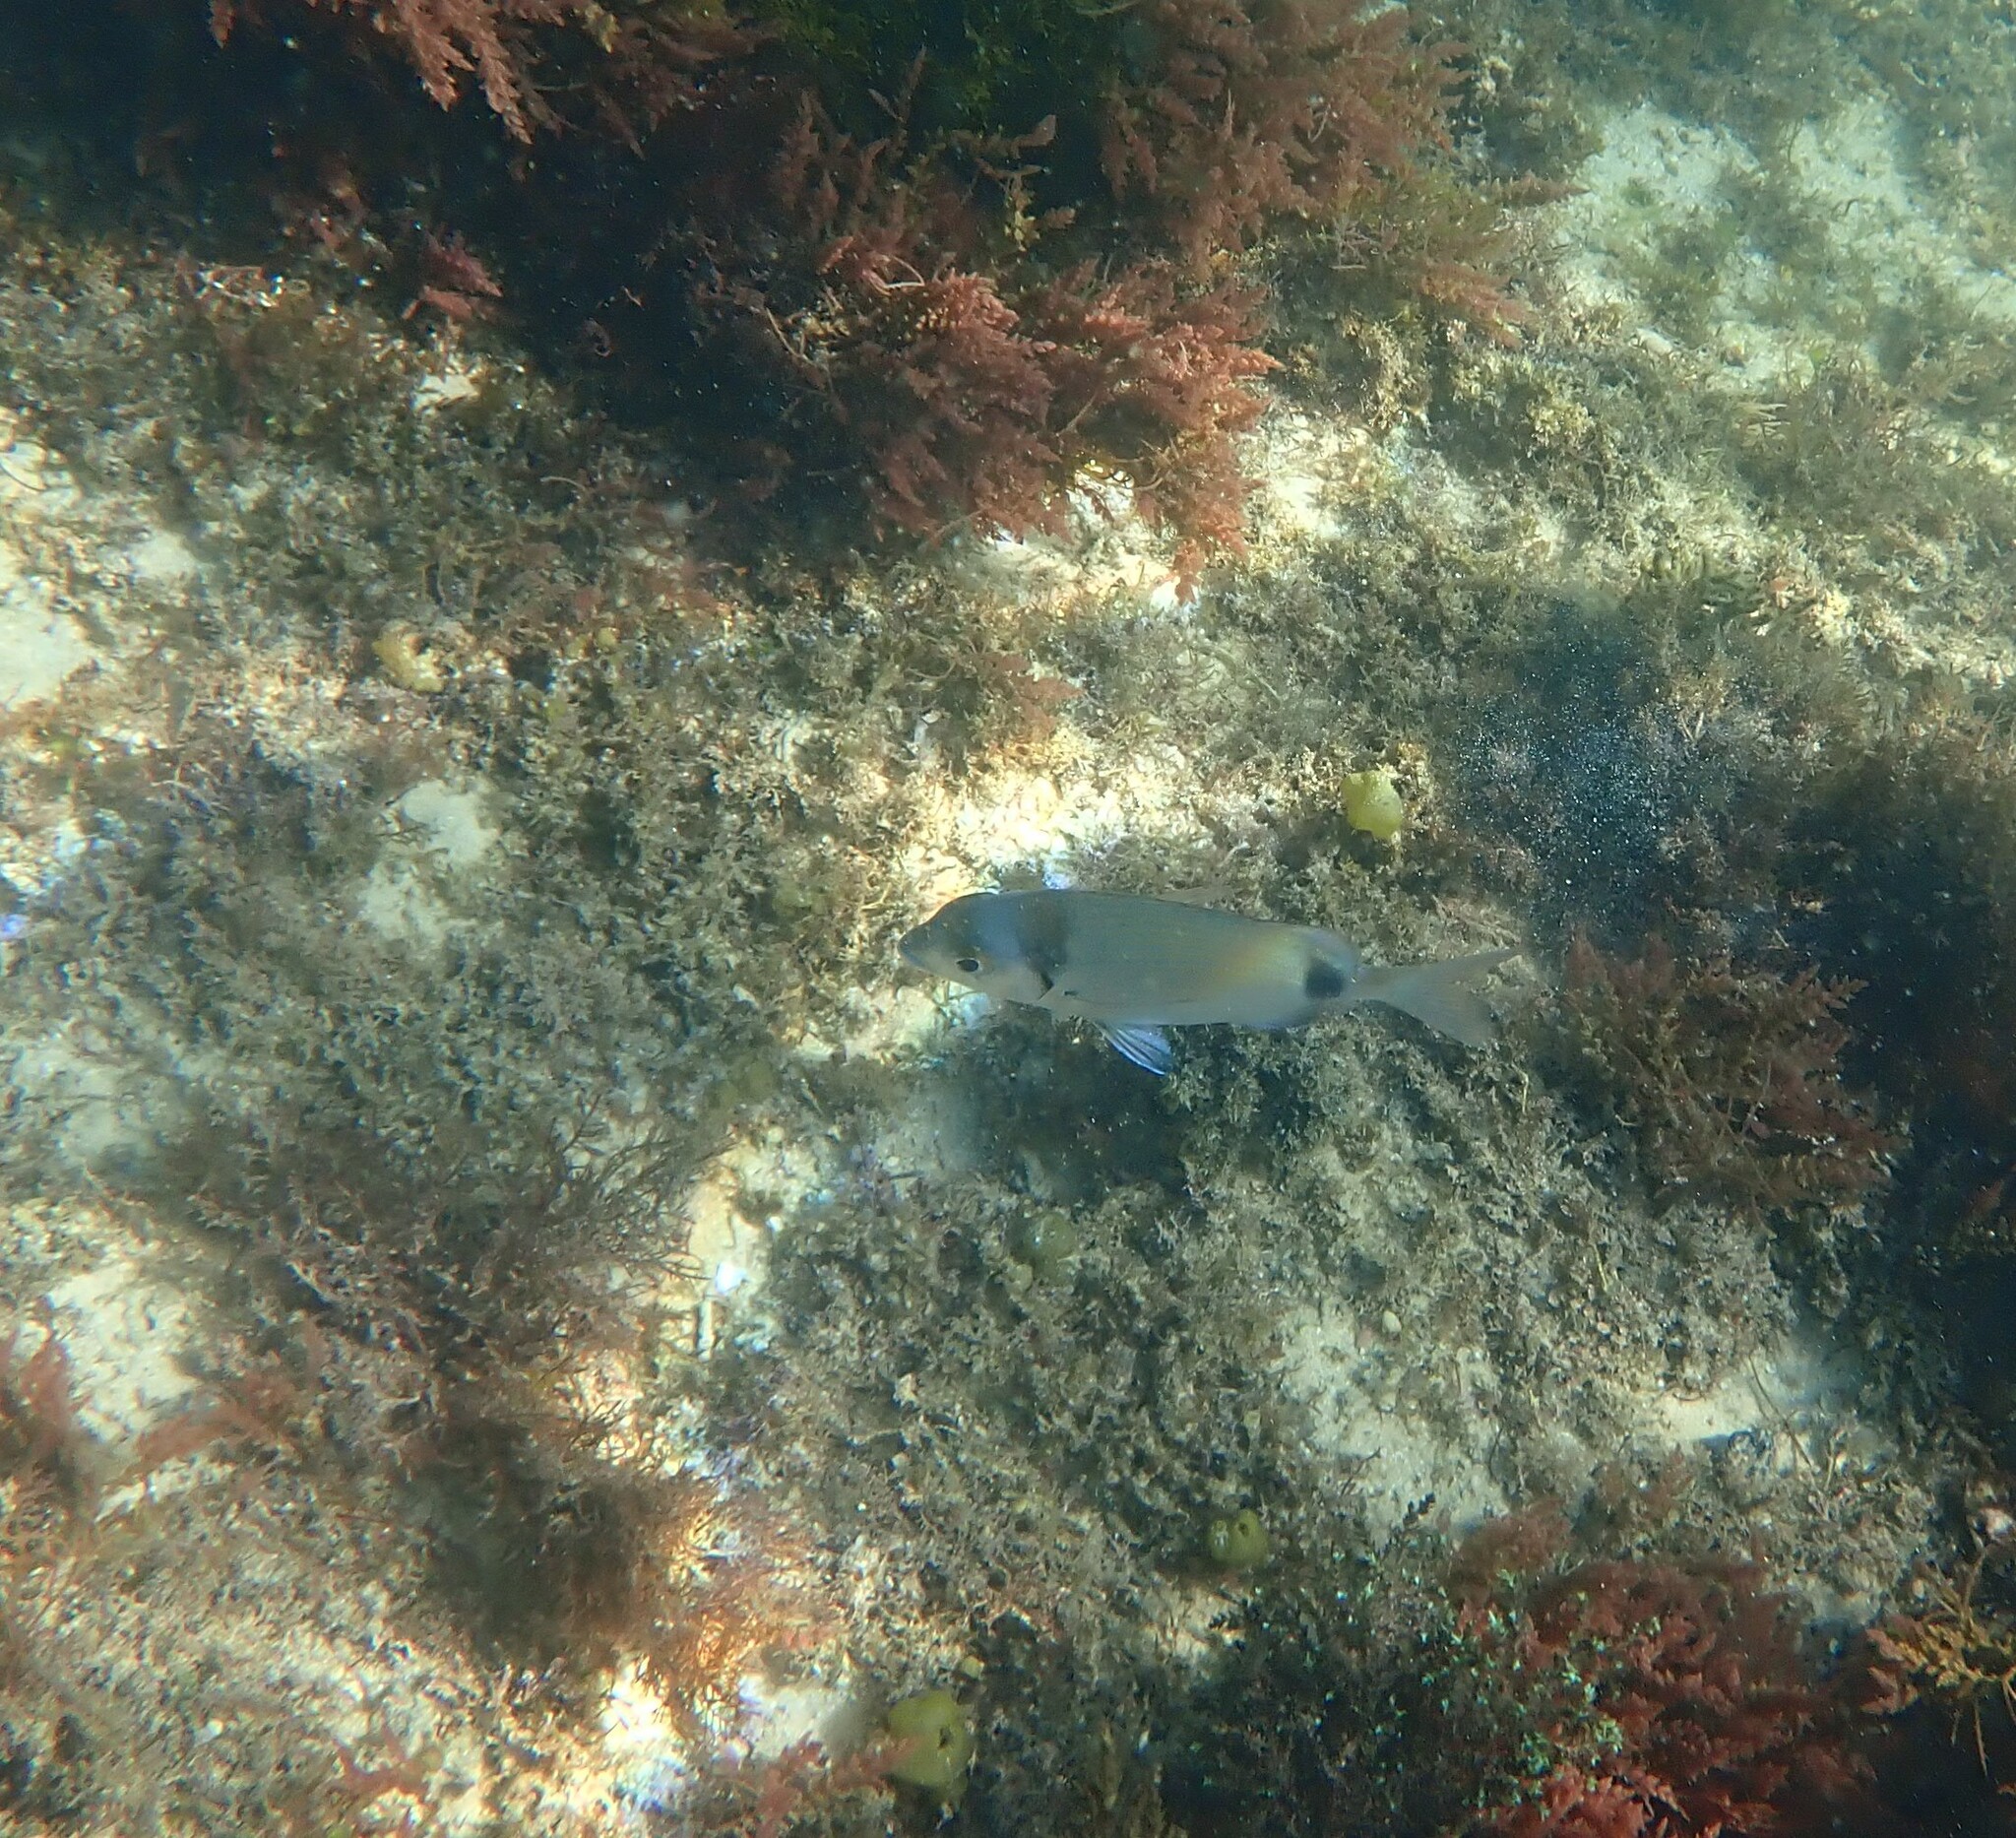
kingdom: Animalia
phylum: Chordata
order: Perciformes
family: Sparidae
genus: Diplodus
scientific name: Diplodus vulgaris
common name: Common two-banded seabream
